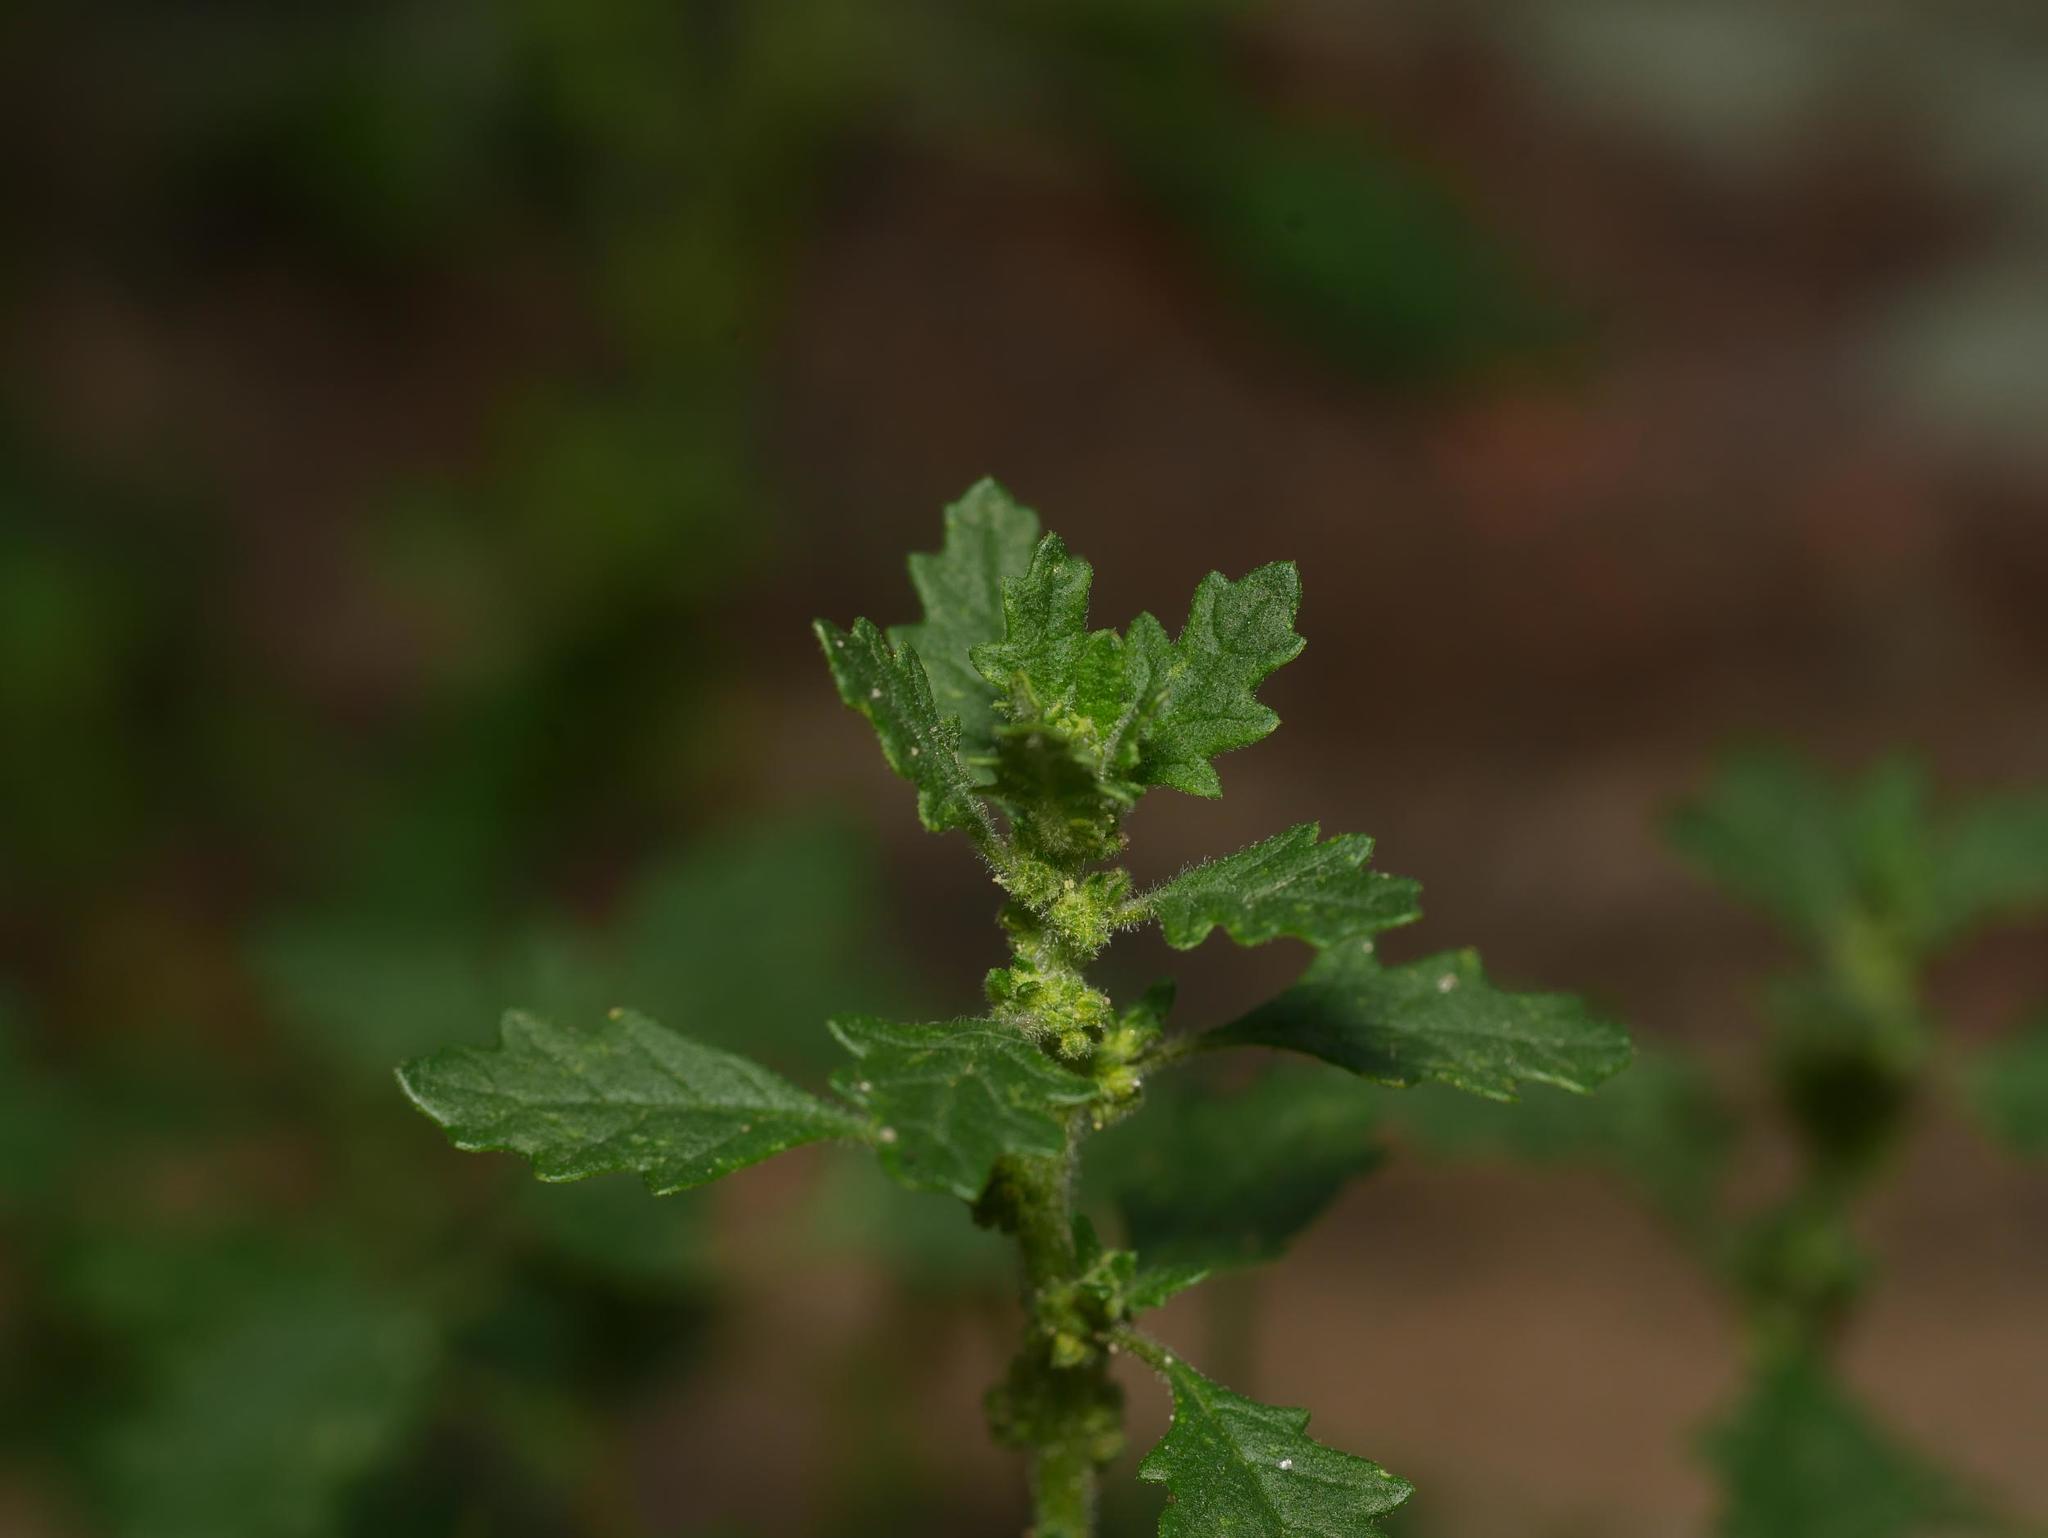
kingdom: Plantae
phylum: Tracheophyta
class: Magnoliopsida
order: Caryophyllales
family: Amaranthaceae
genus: Dysphania
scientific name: Dysphania pumilio
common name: Clammy goosefoot
